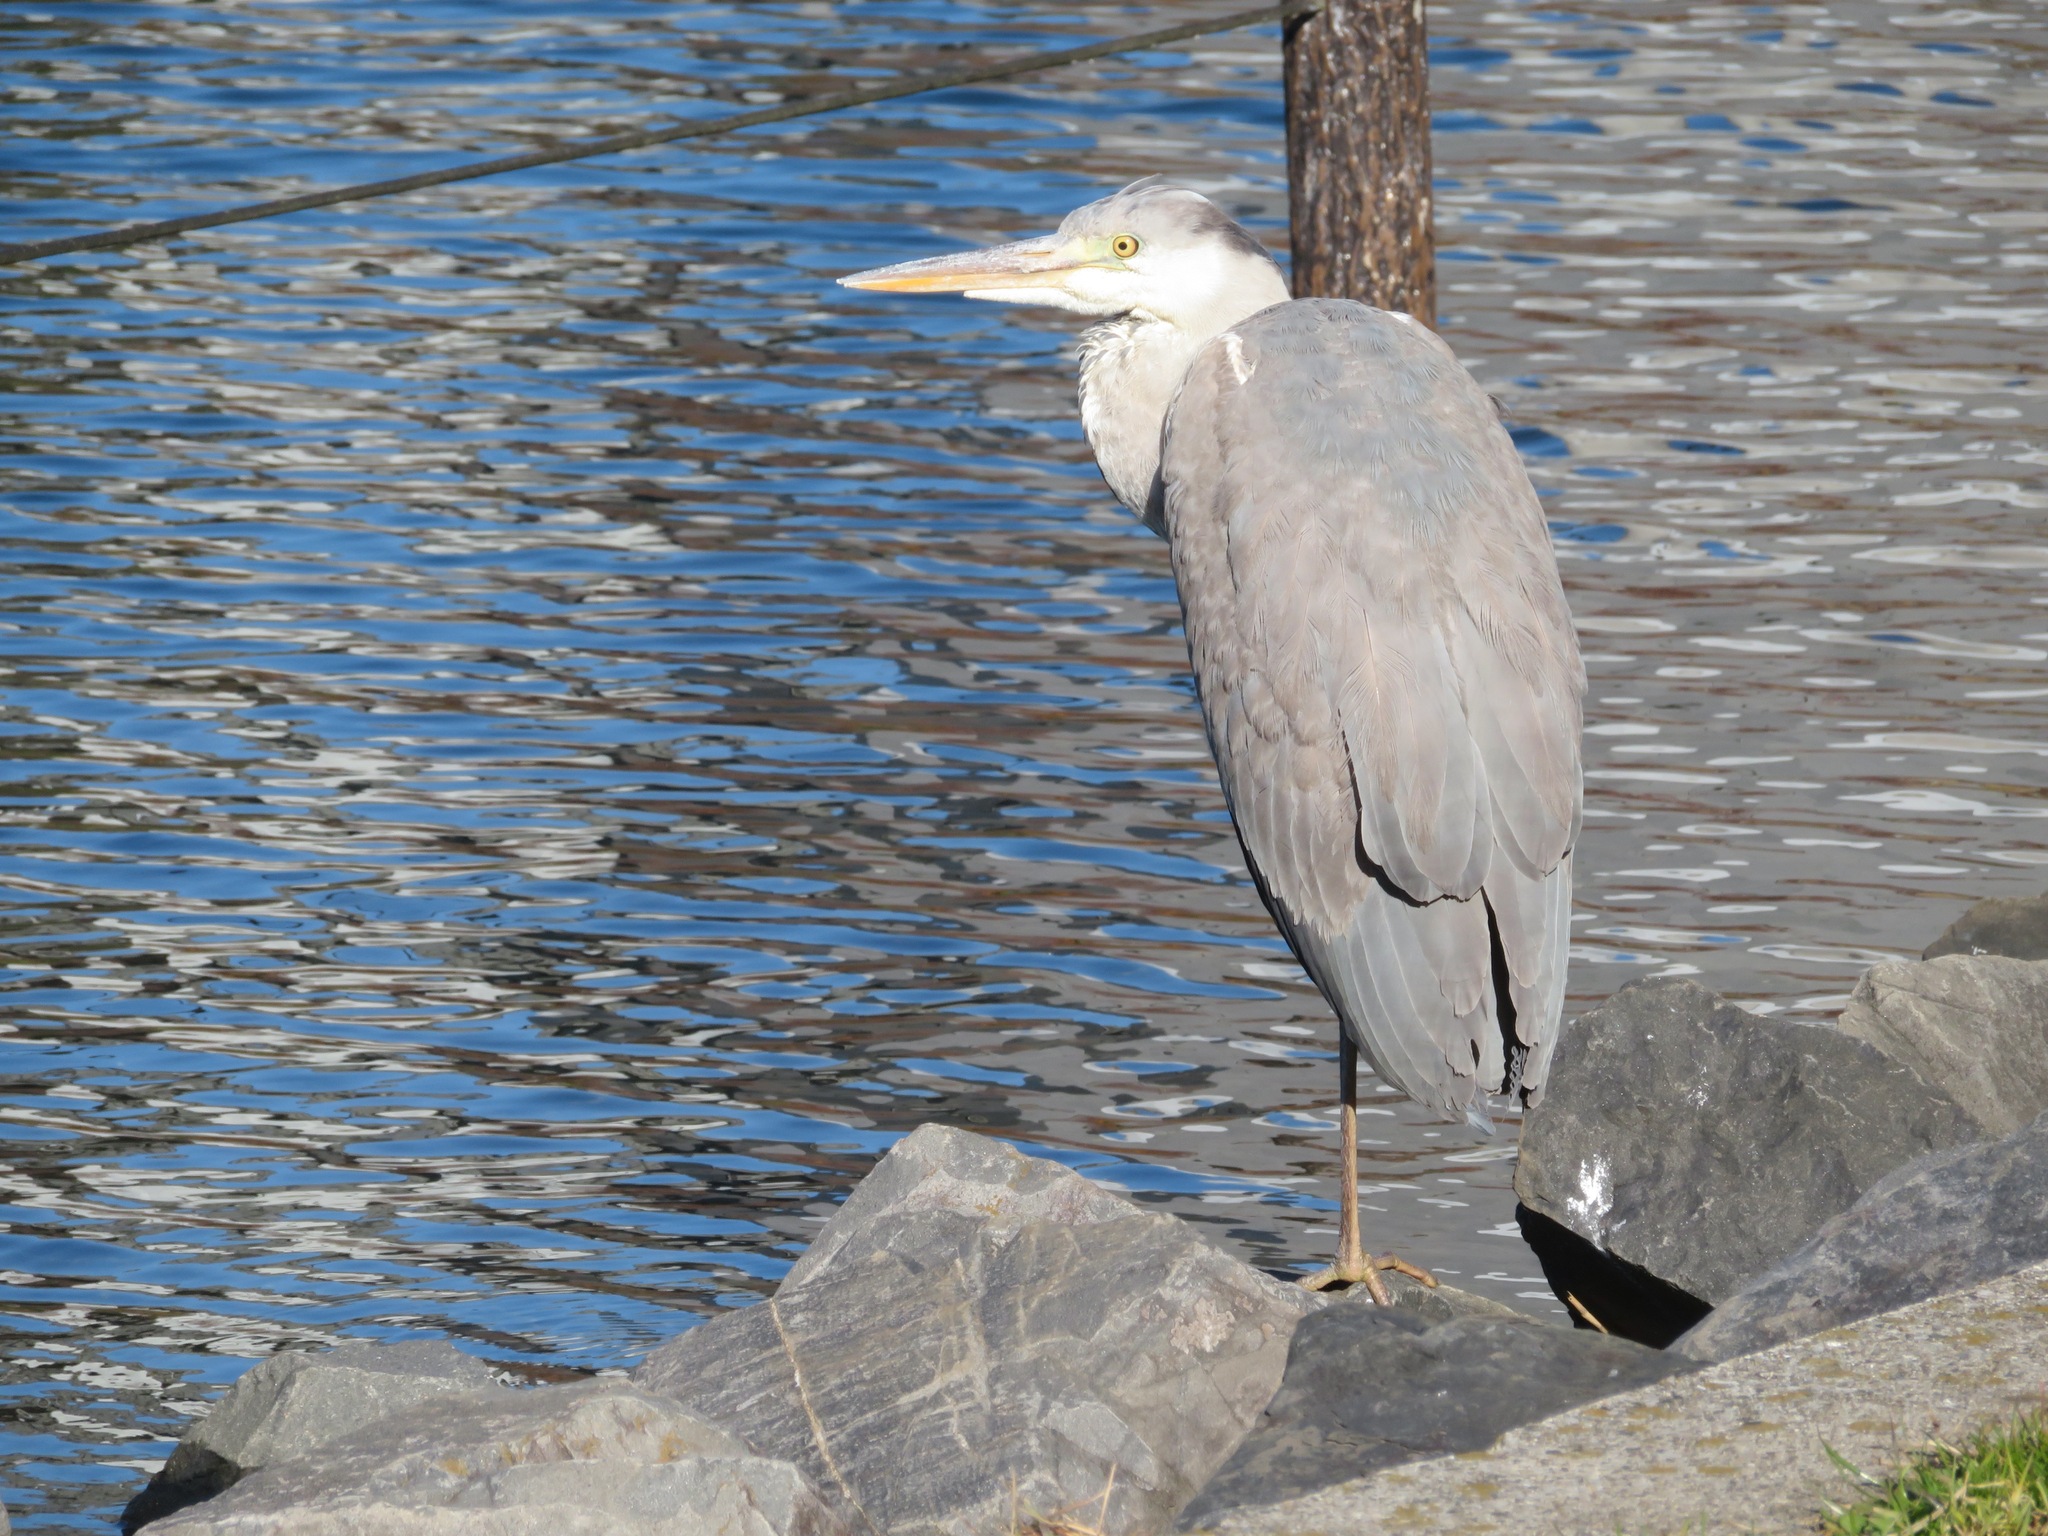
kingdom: Animalia
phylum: Chordata
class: Aves
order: Pelecaniformes
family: Ardeidae
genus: Ardea
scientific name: Ardea cinerea
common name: Grey heron
